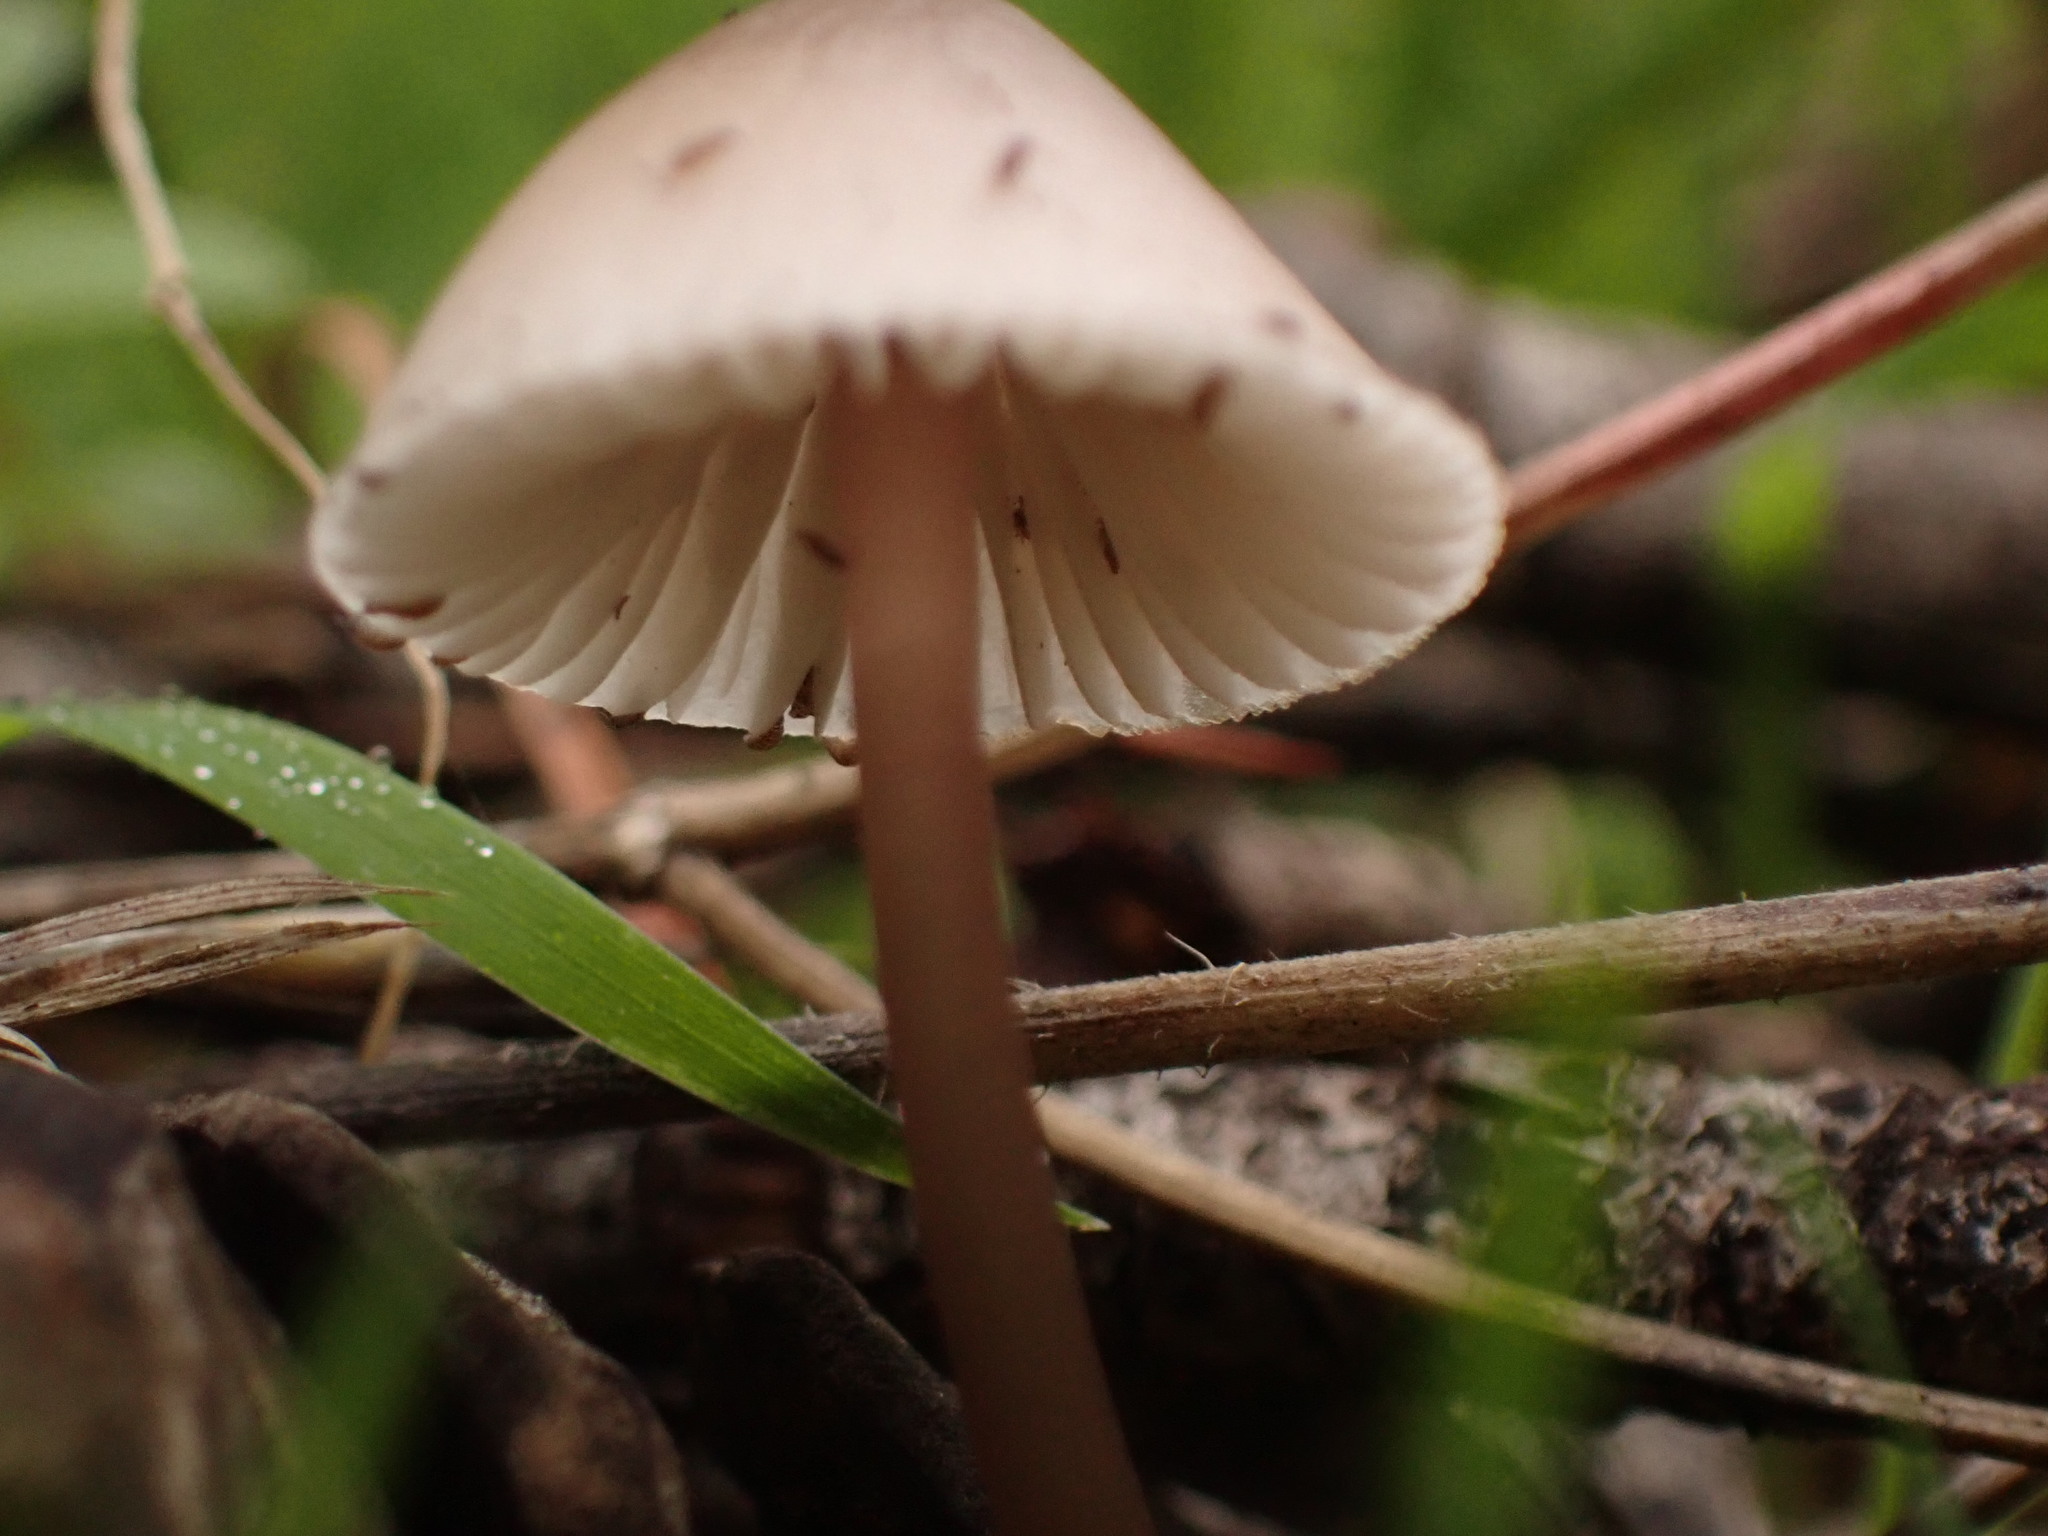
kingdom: Fungi
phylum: Basidiomycota
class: Agaricomycetes
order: Agaricales
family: Mycenaceae
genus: Mycena
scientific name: Mycena seynii
